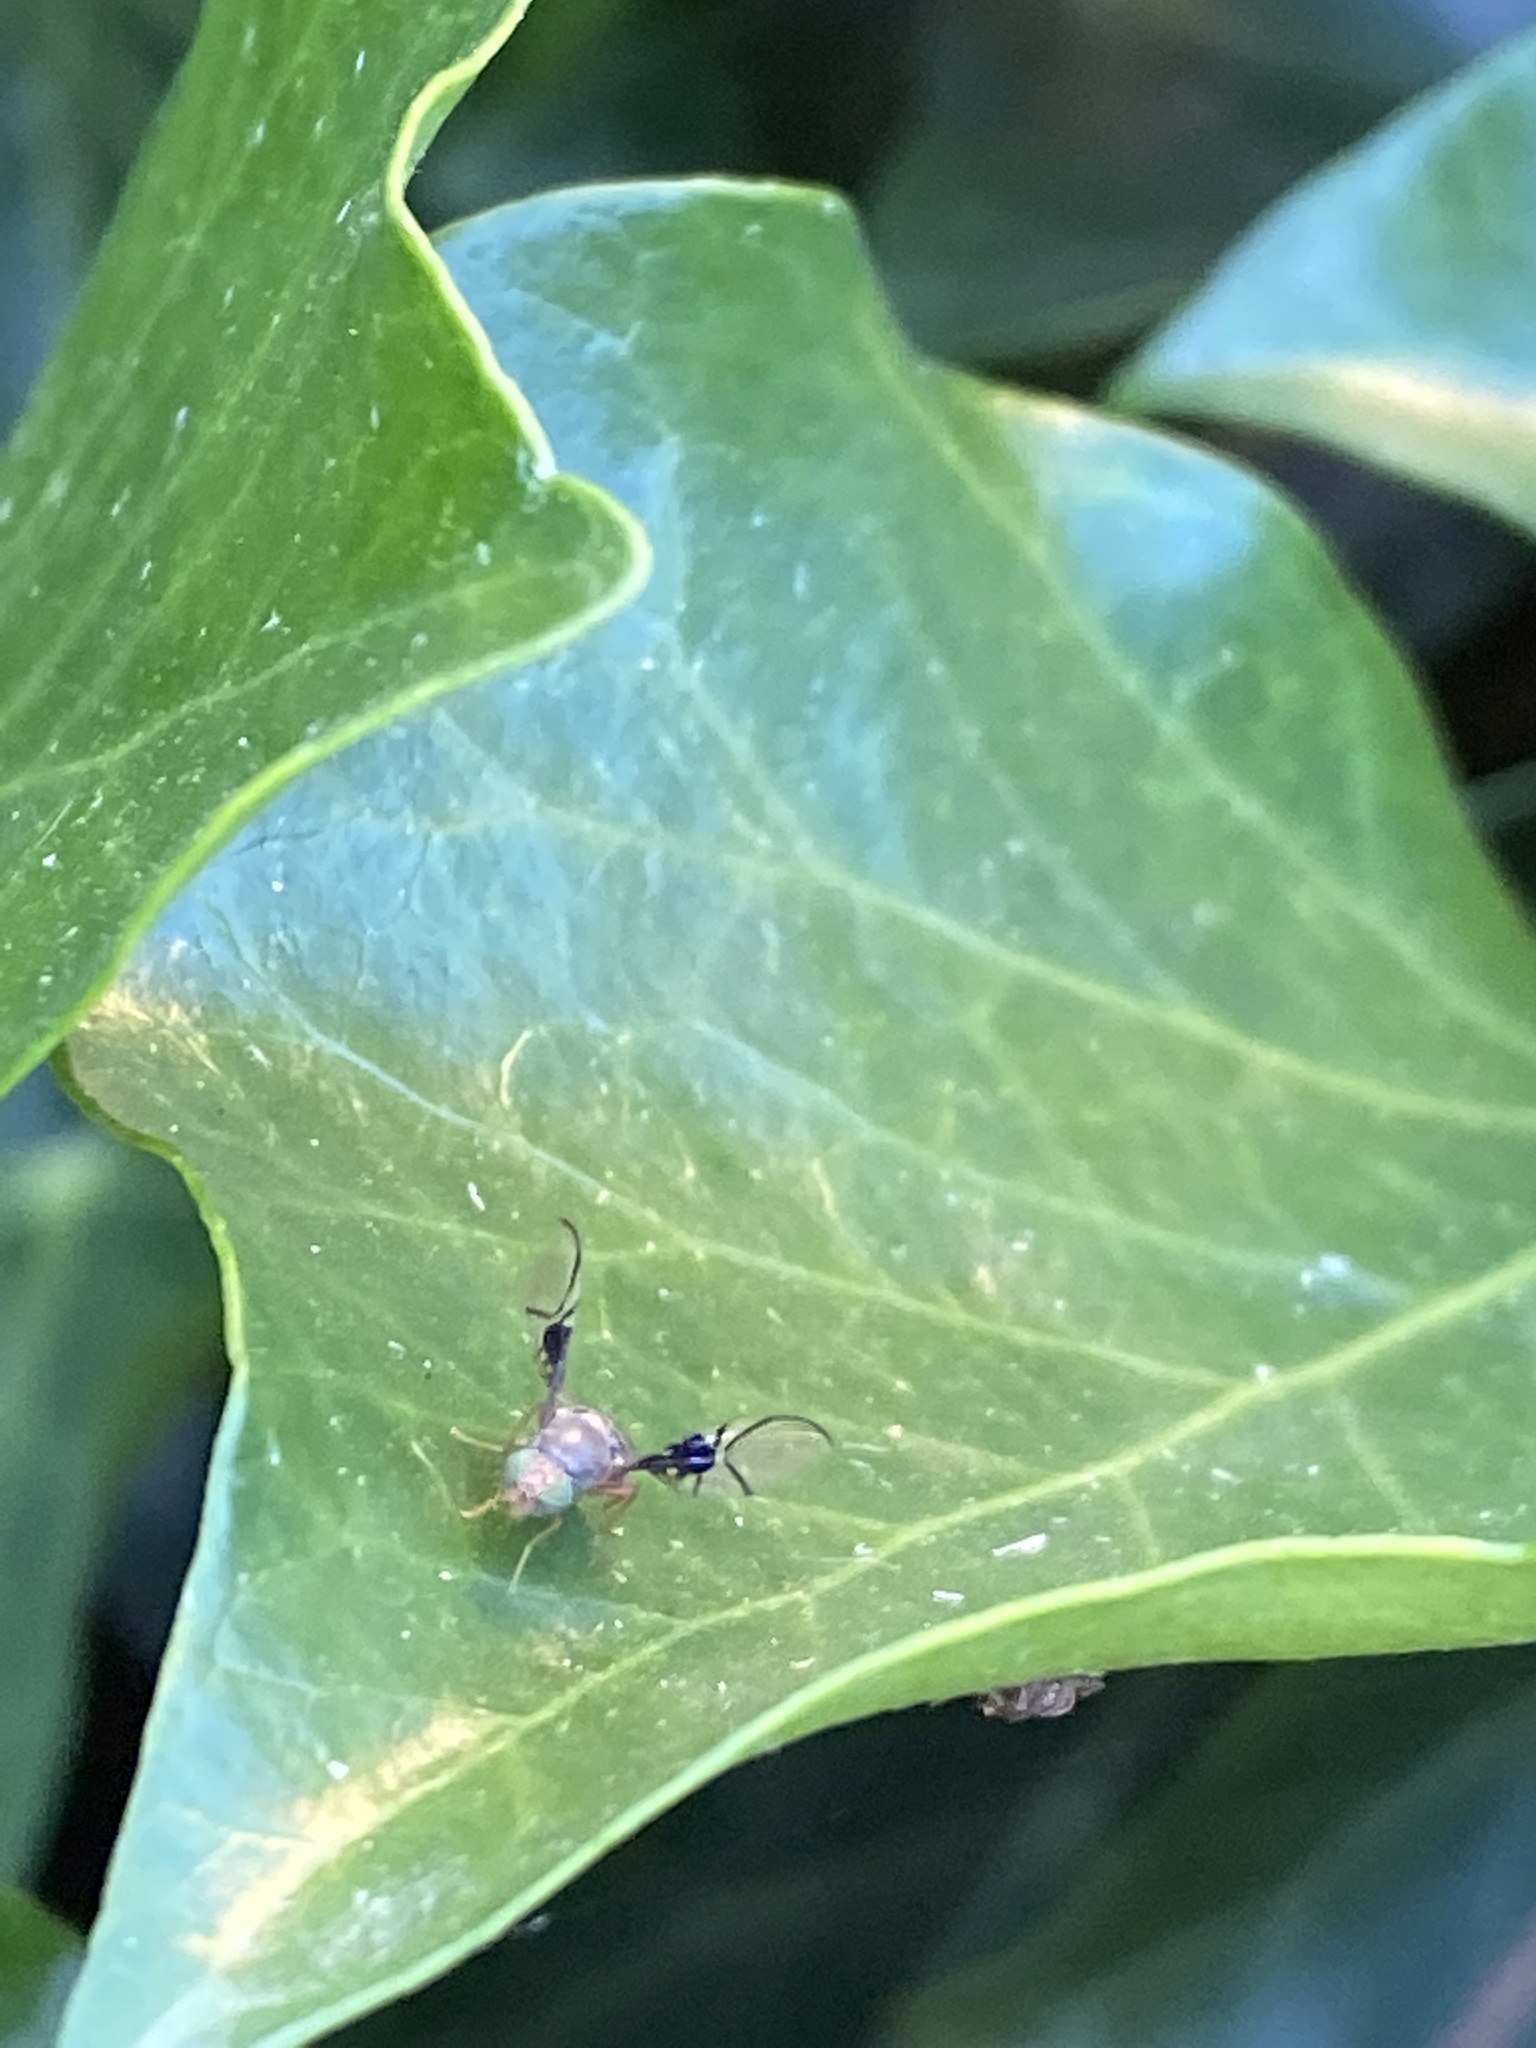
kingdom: Animalia
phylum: Arthropoda
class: Insecta
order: Diptera
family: Tephritidae
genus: Anomoia
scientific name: Anomoia purmunda
